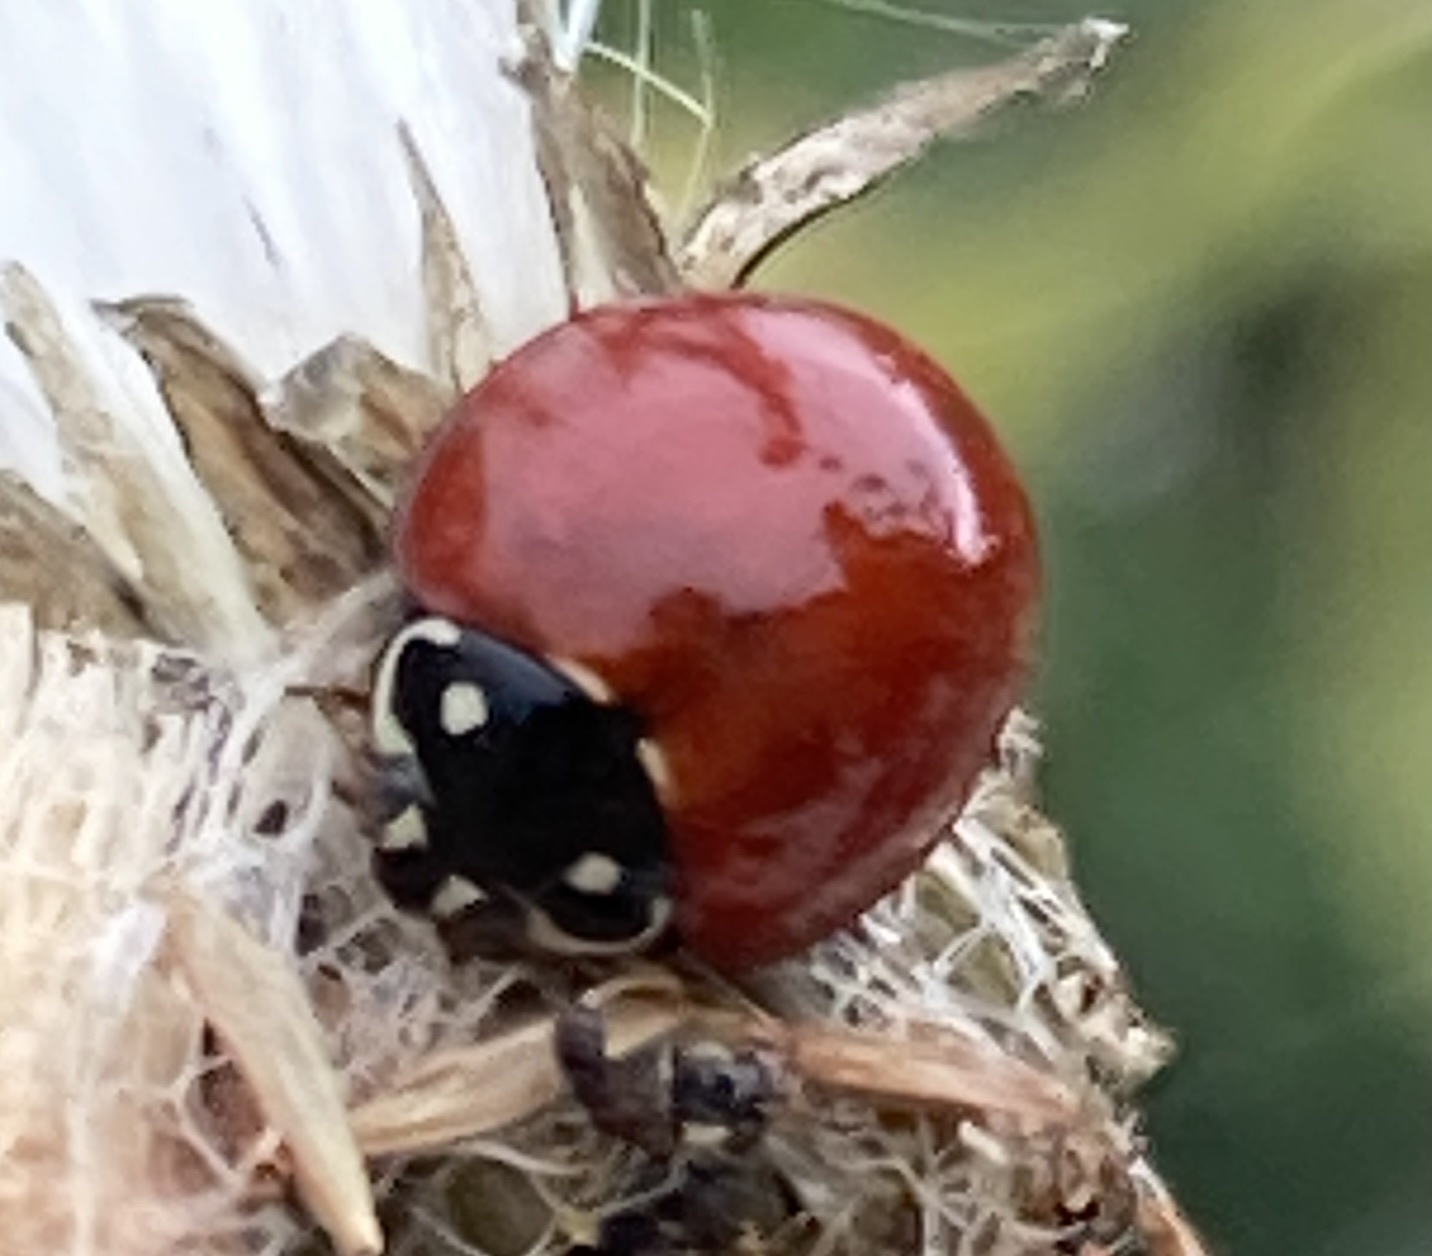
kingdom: Animalia
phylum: Arthropoda
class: Insecta
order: Coleoptera
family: Coccinellidae
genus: Cycloneda
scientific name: Cycloneda sanguinea
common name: Ladybird beetle
